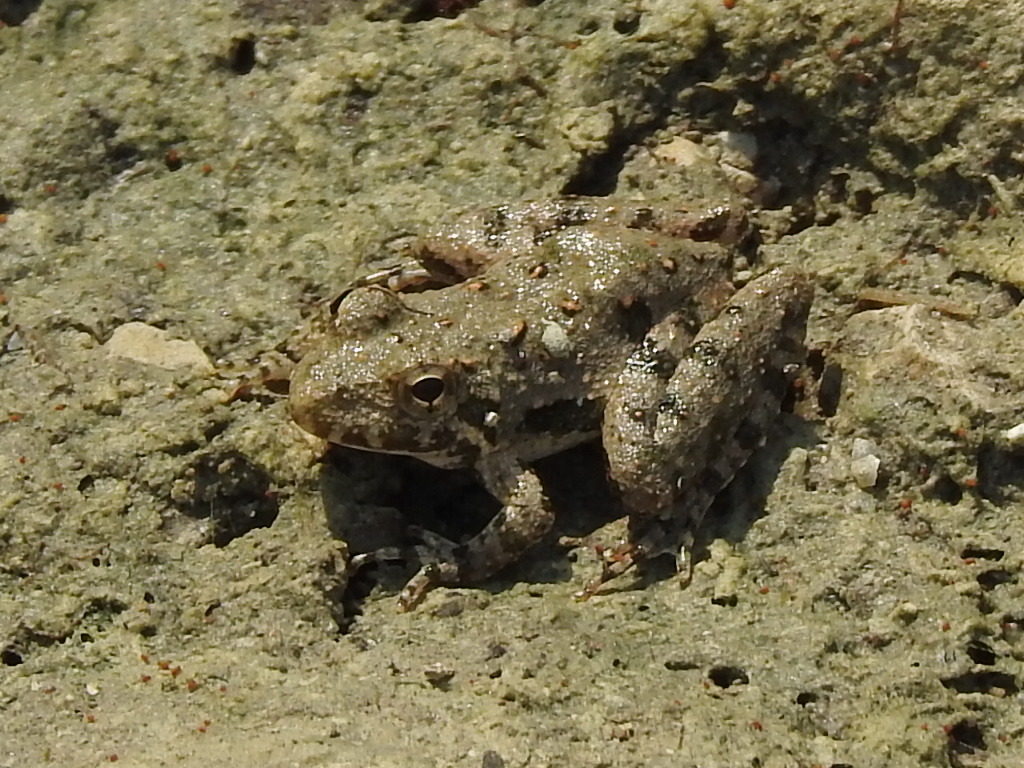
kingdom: Animalia
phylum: Chordata
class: Amphibia
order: Anura
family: Hylidae
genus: Acris
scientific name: Acris blanchardi
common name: Blanchard's cricket frog
